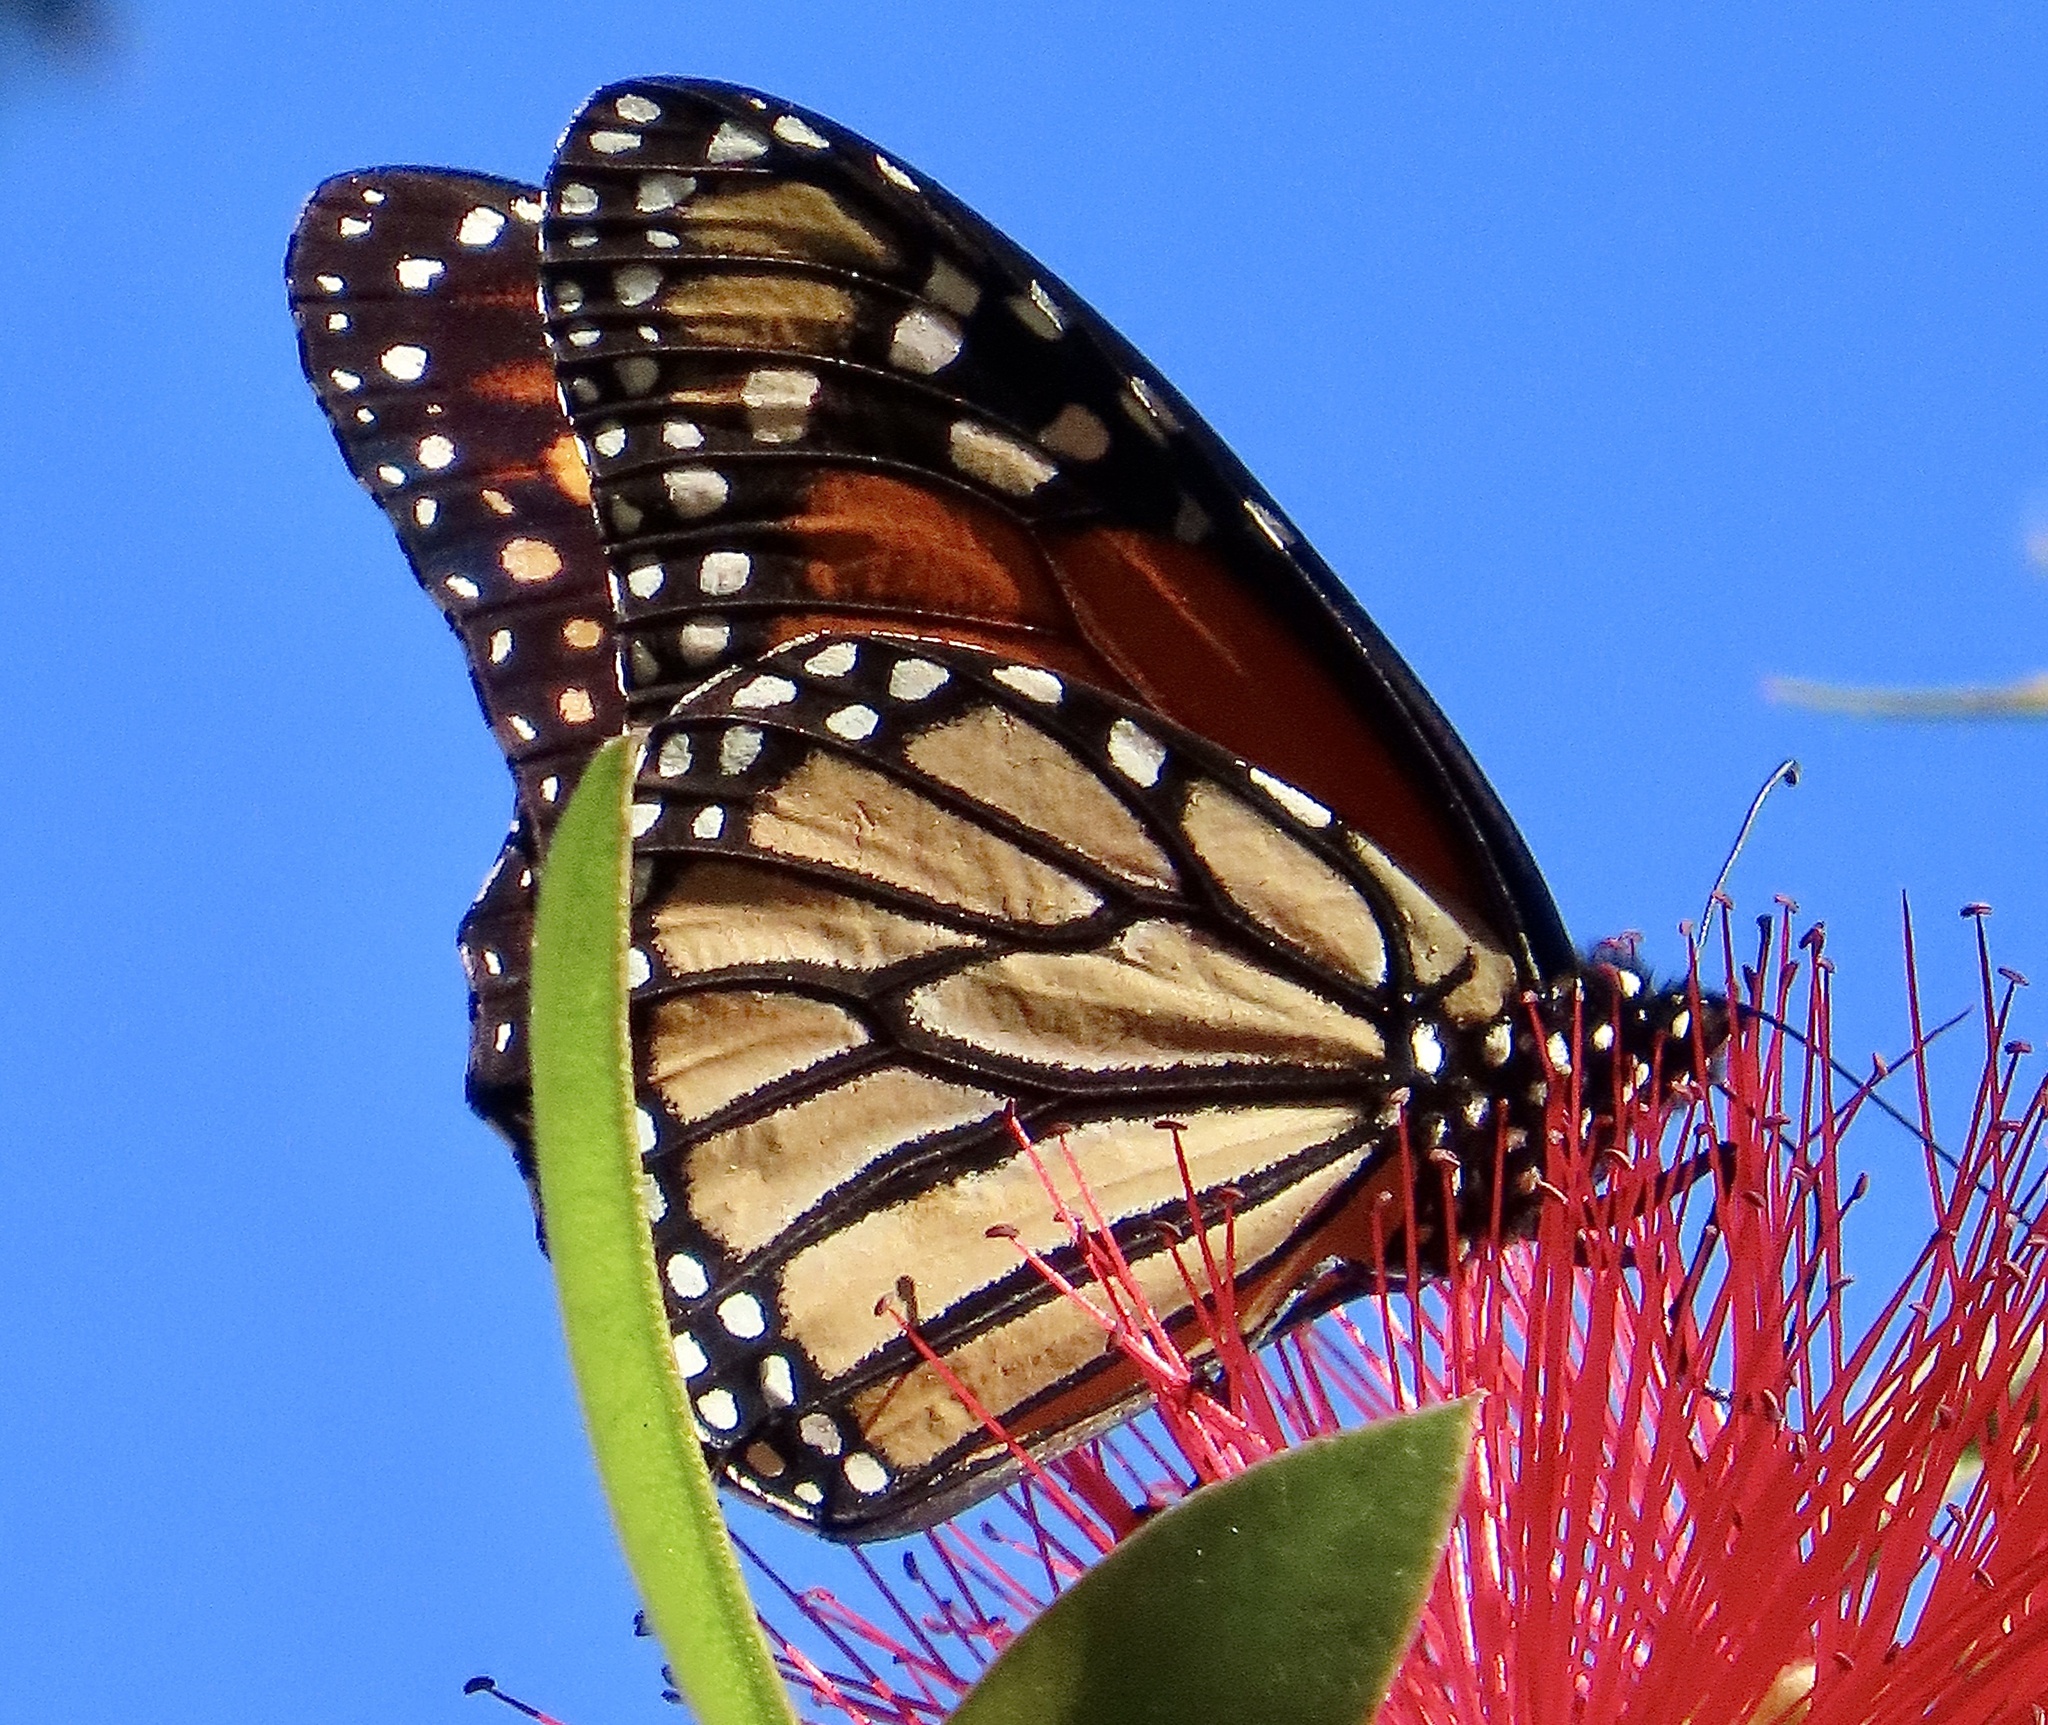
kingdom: Animalia
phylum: Arthropoda
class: Insecta
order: Lepidoptera
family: Nymphalidae
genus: Danaus
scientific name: Danaus plexippus
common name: Monarch
